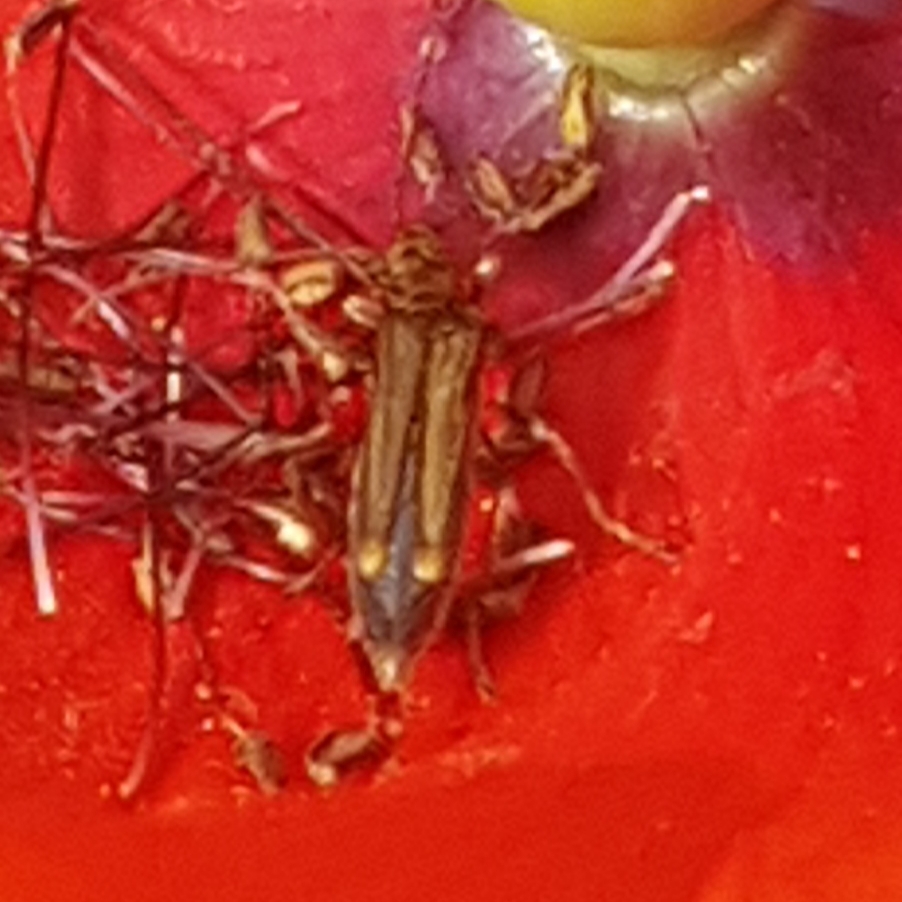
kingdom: Animalia
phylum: Arthropoda
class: Insecta
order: Coleoptera
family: Oedemeridae
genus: Oedemera
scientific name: Oedemera barbara
